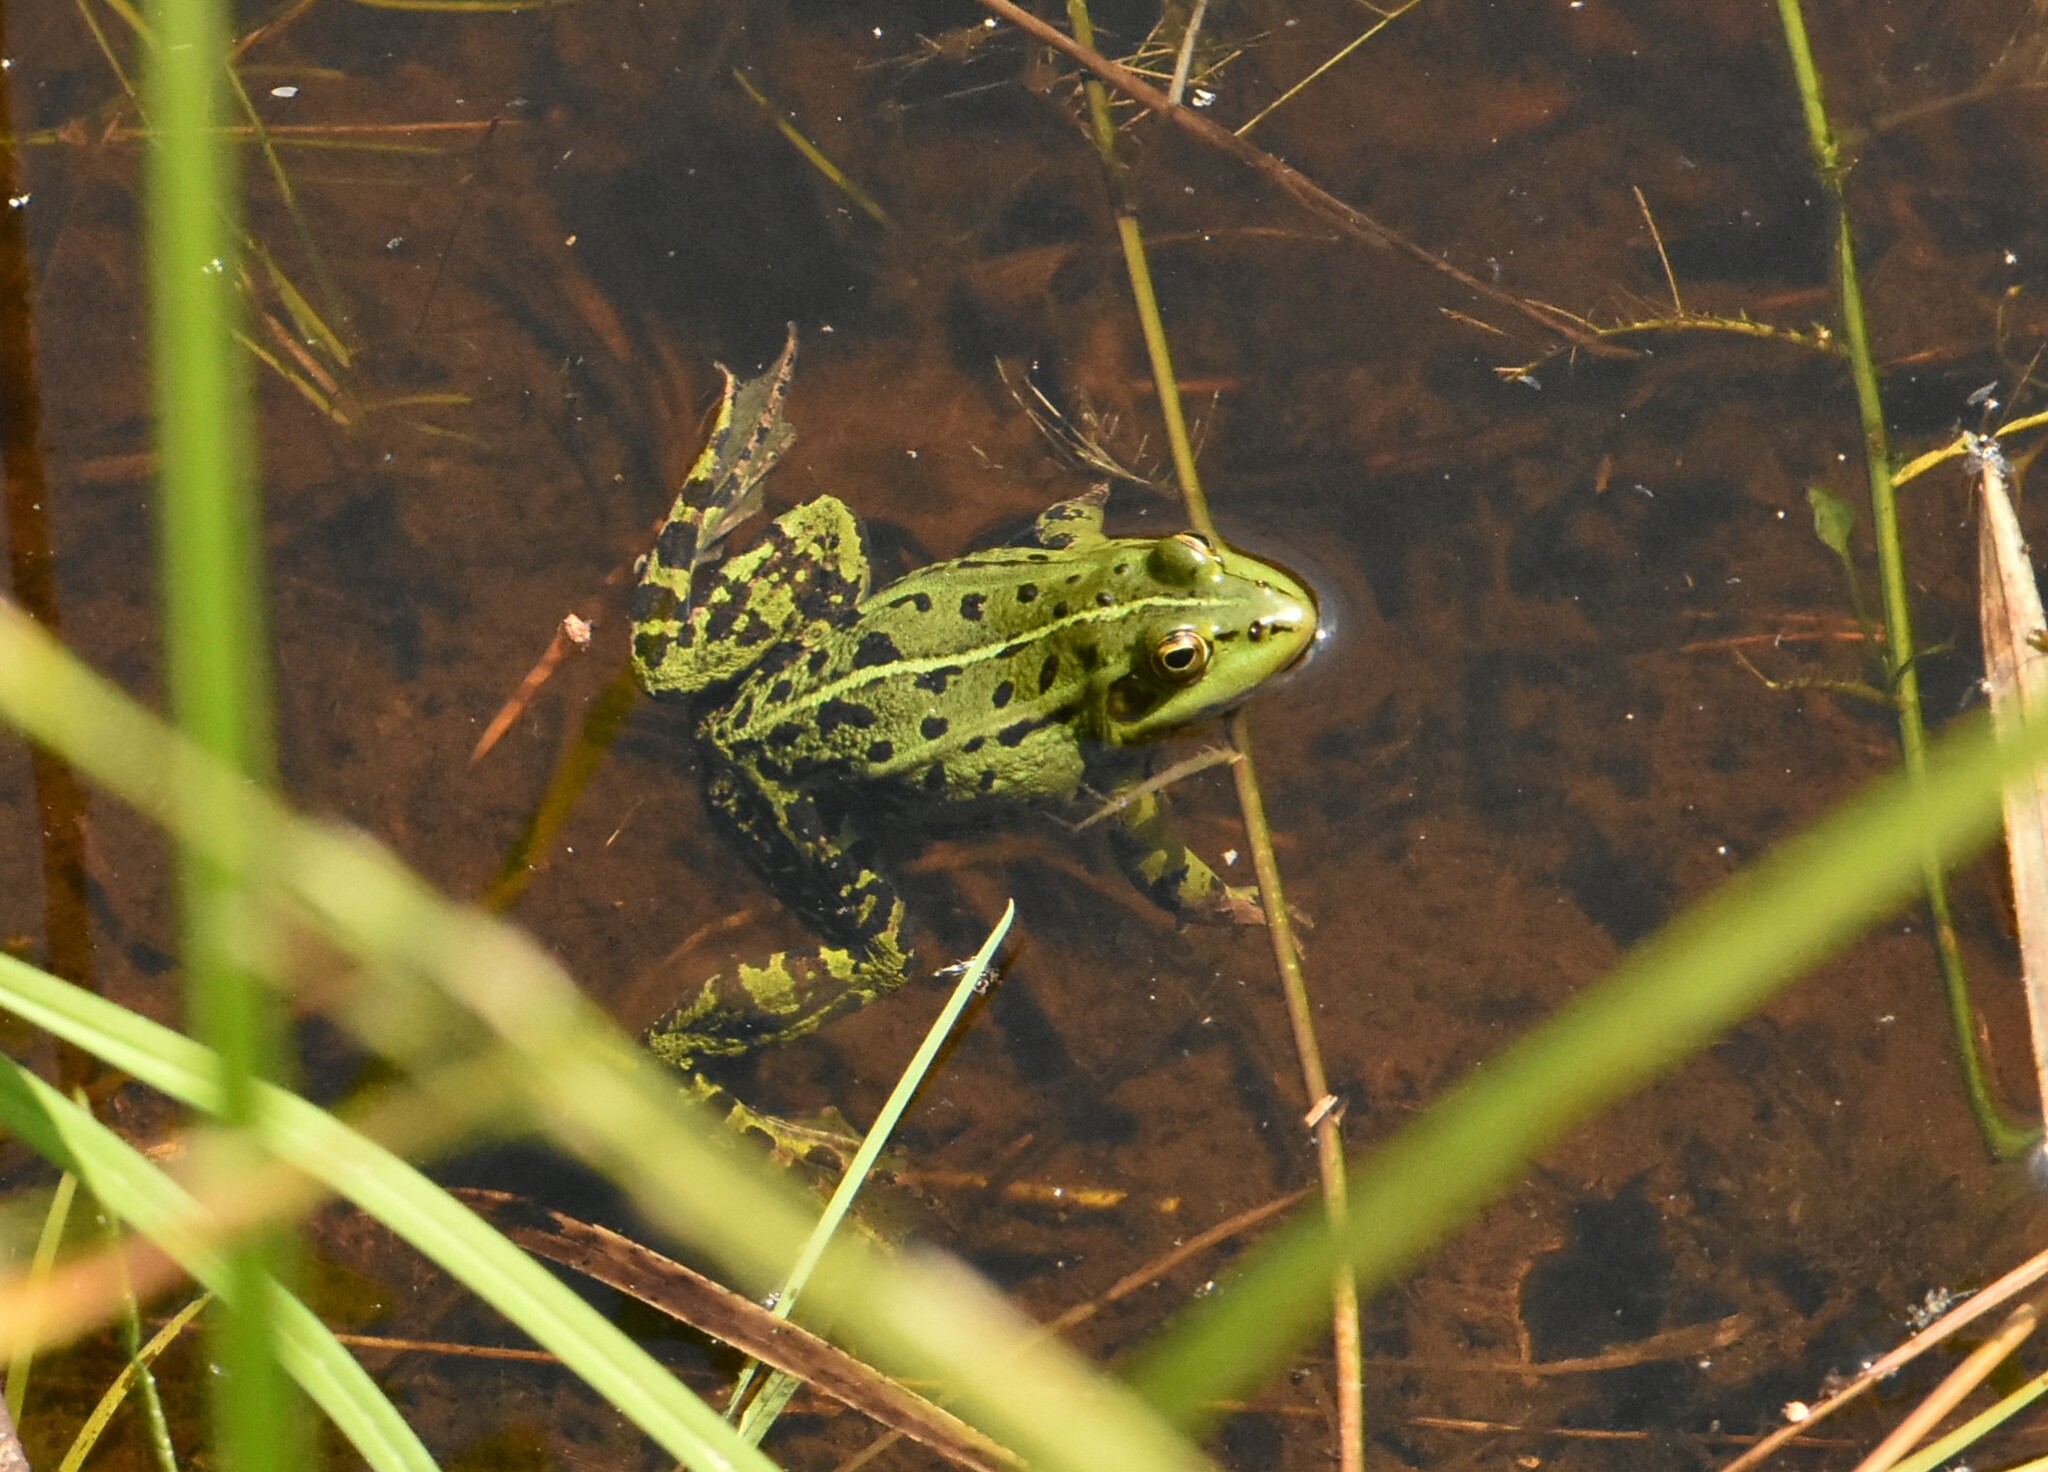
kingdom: Animalia
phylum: Chordata
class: Amphibia
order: Anura
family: Ranidae
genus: Pelophylax
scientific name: Pelophylax lessonae
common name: Pool frog
